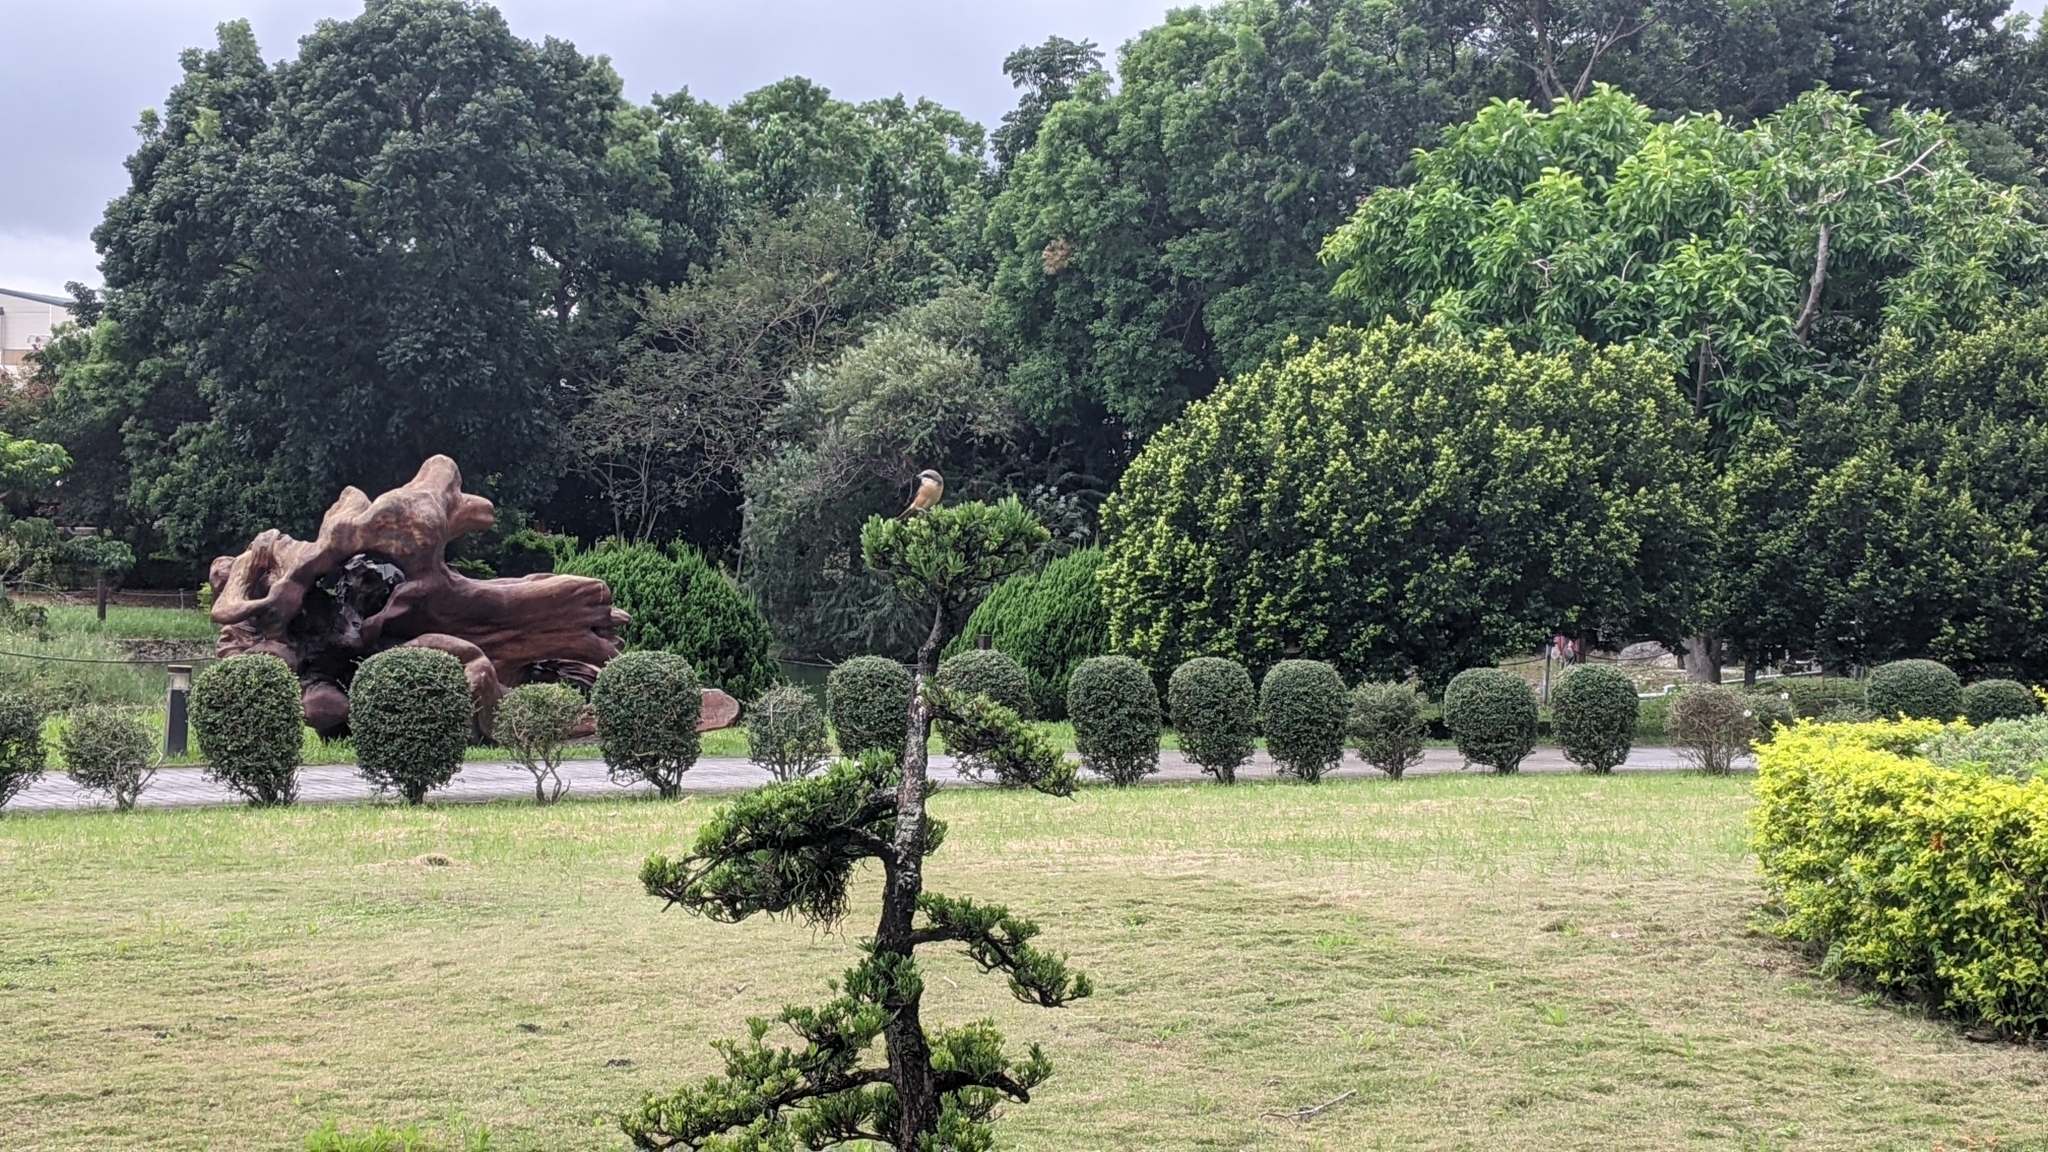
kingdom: Animalia
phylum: Chordata
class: Aves
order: Passeriformes
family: Laniidae
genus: Lanius
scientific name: Lanius cristatus
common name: Brown shrike
